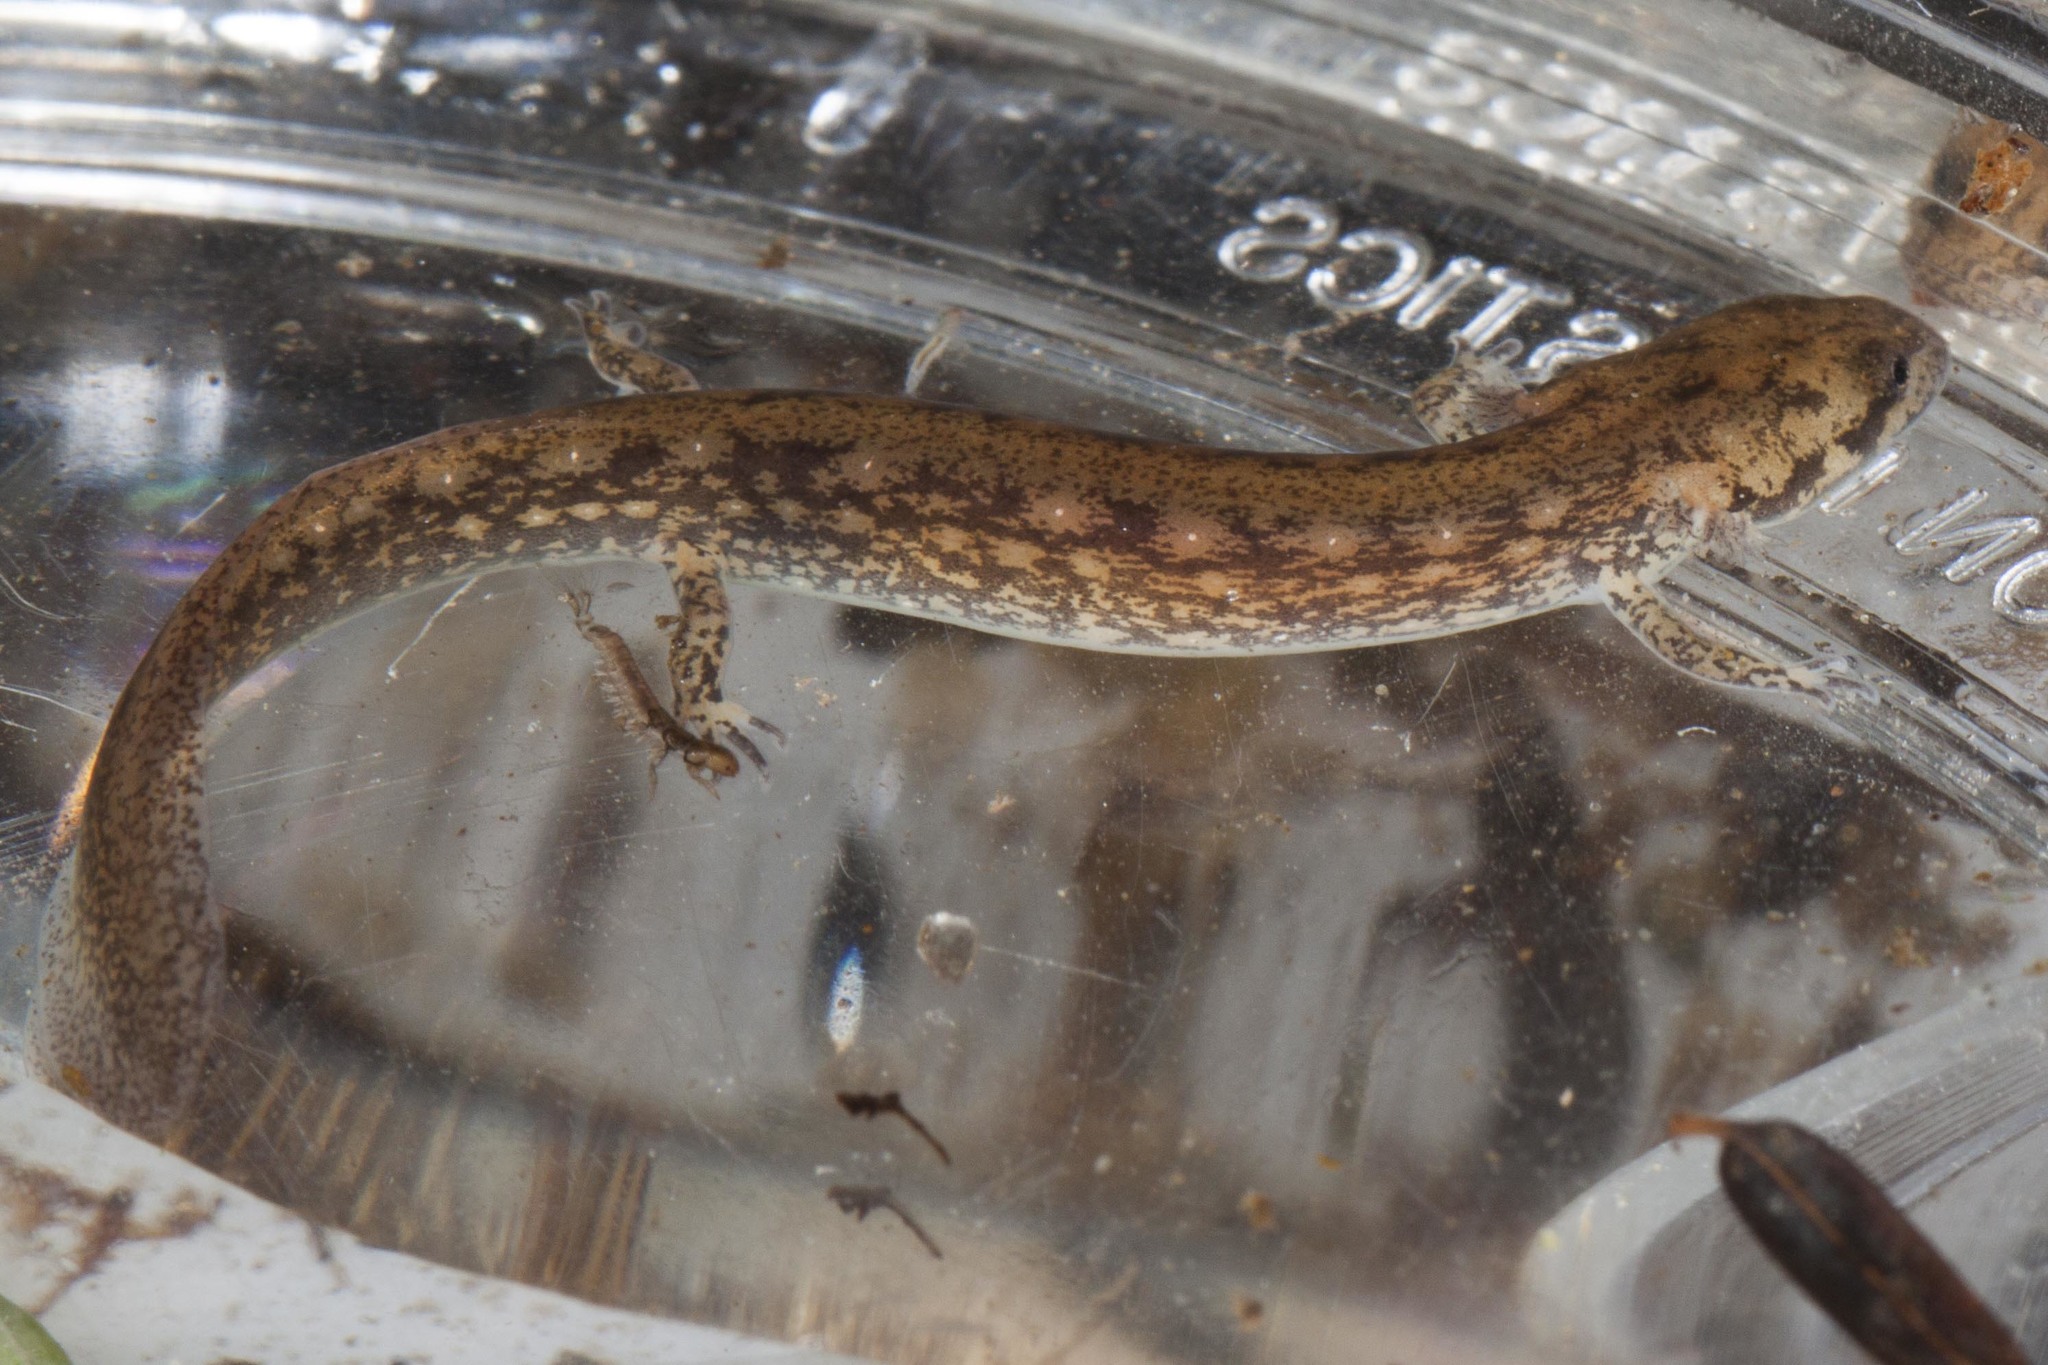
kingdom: Animalia
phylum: Chordata
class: Amphibia
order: Caudata
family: Plethodontidae
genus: Eurycea
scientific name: Eurycea bislineata
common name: Northern two-lined salamander
